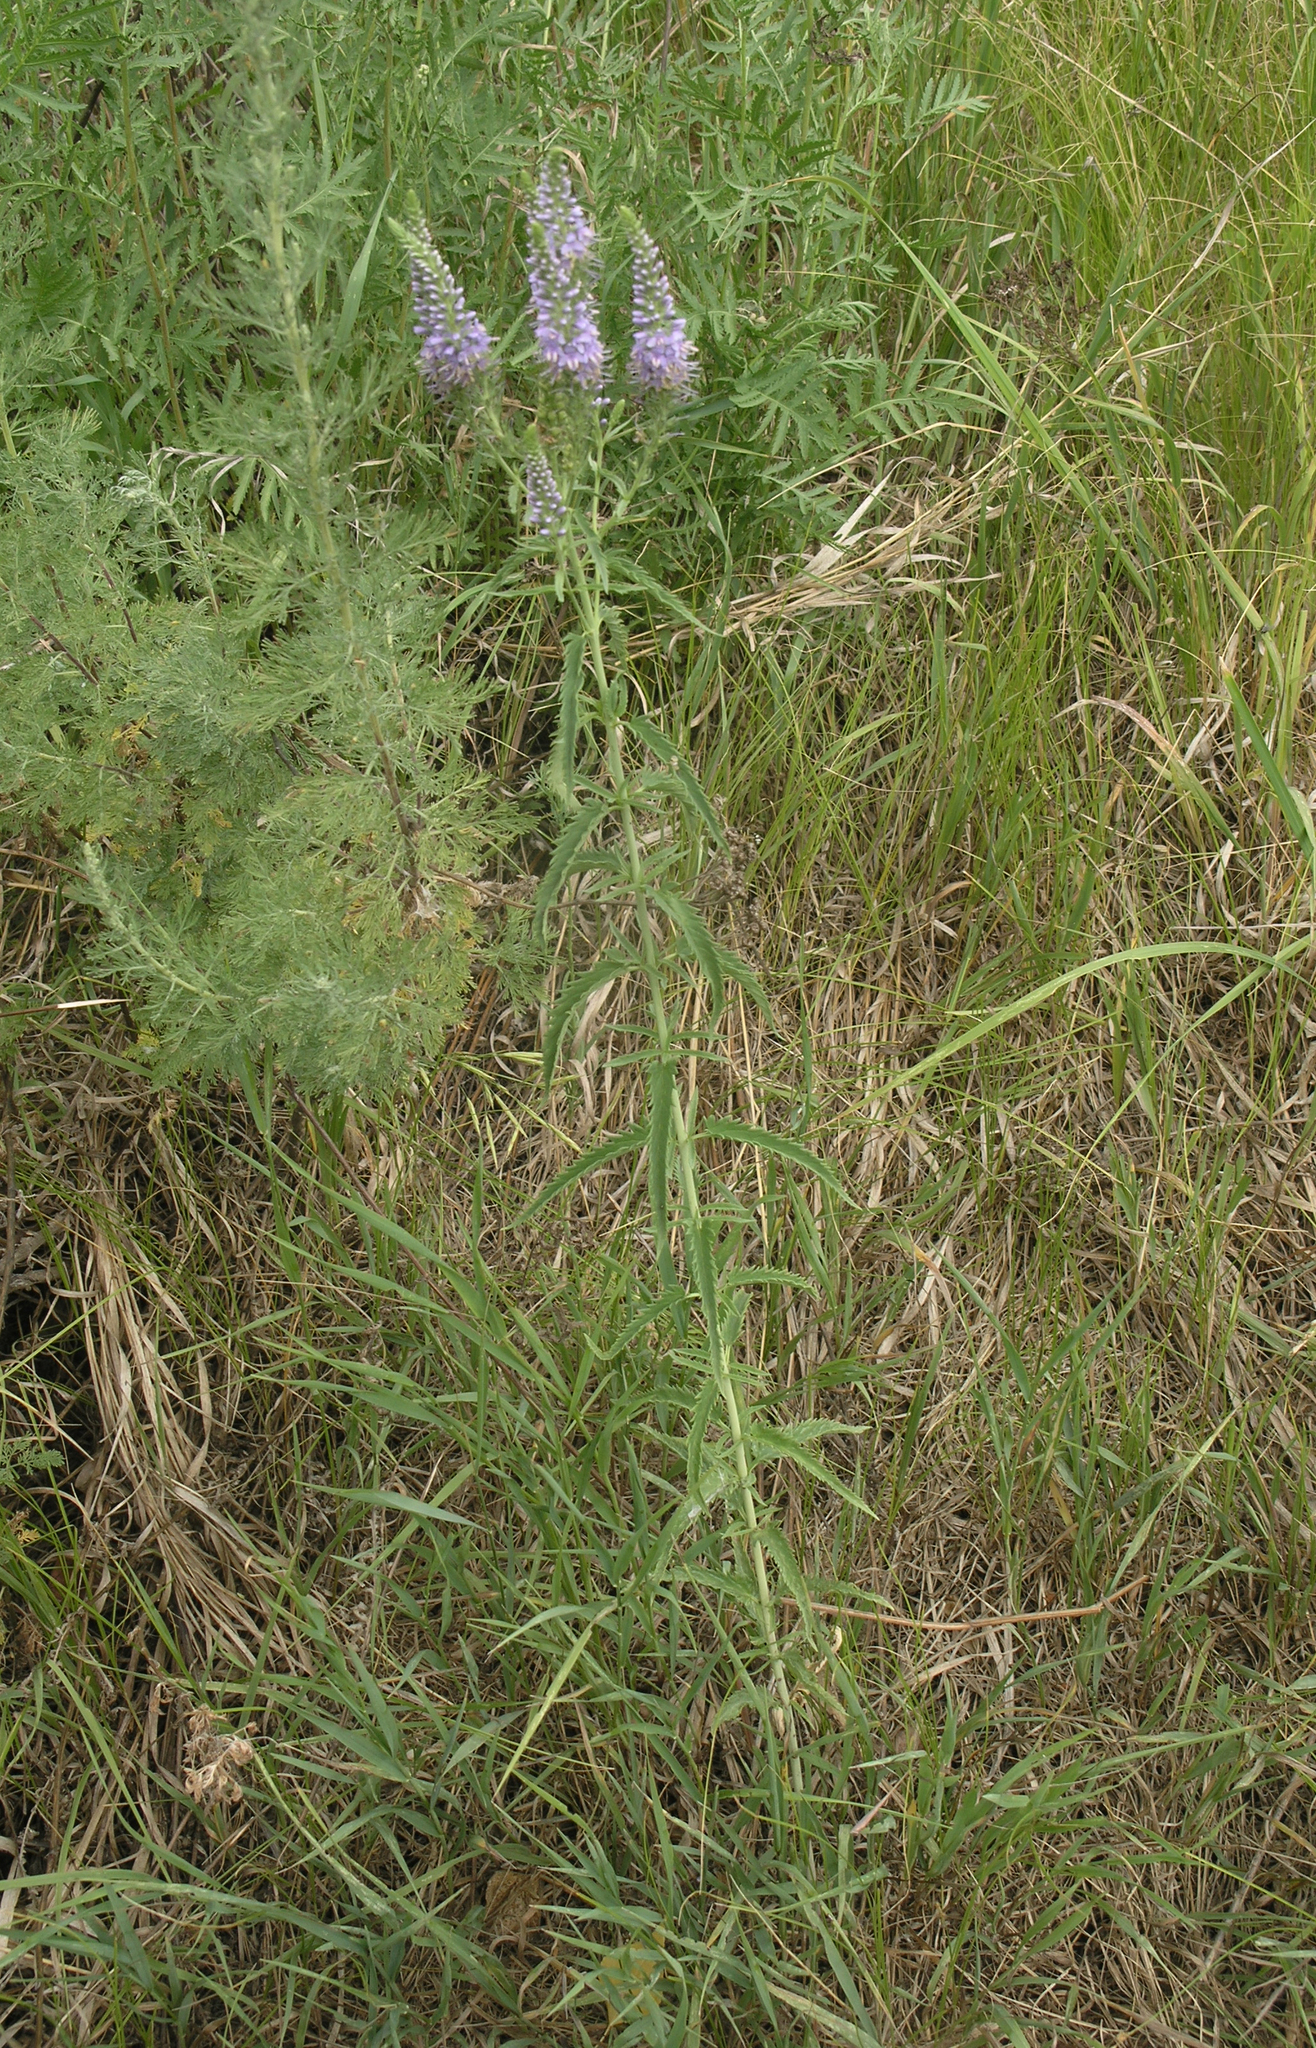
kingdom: Plantae
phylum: Tracheophyta
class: Magnoliopsida
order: Lamiales
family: Plantaginaceae
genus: Veronica
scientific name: Veronica longifolia
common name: Garden speedwell
